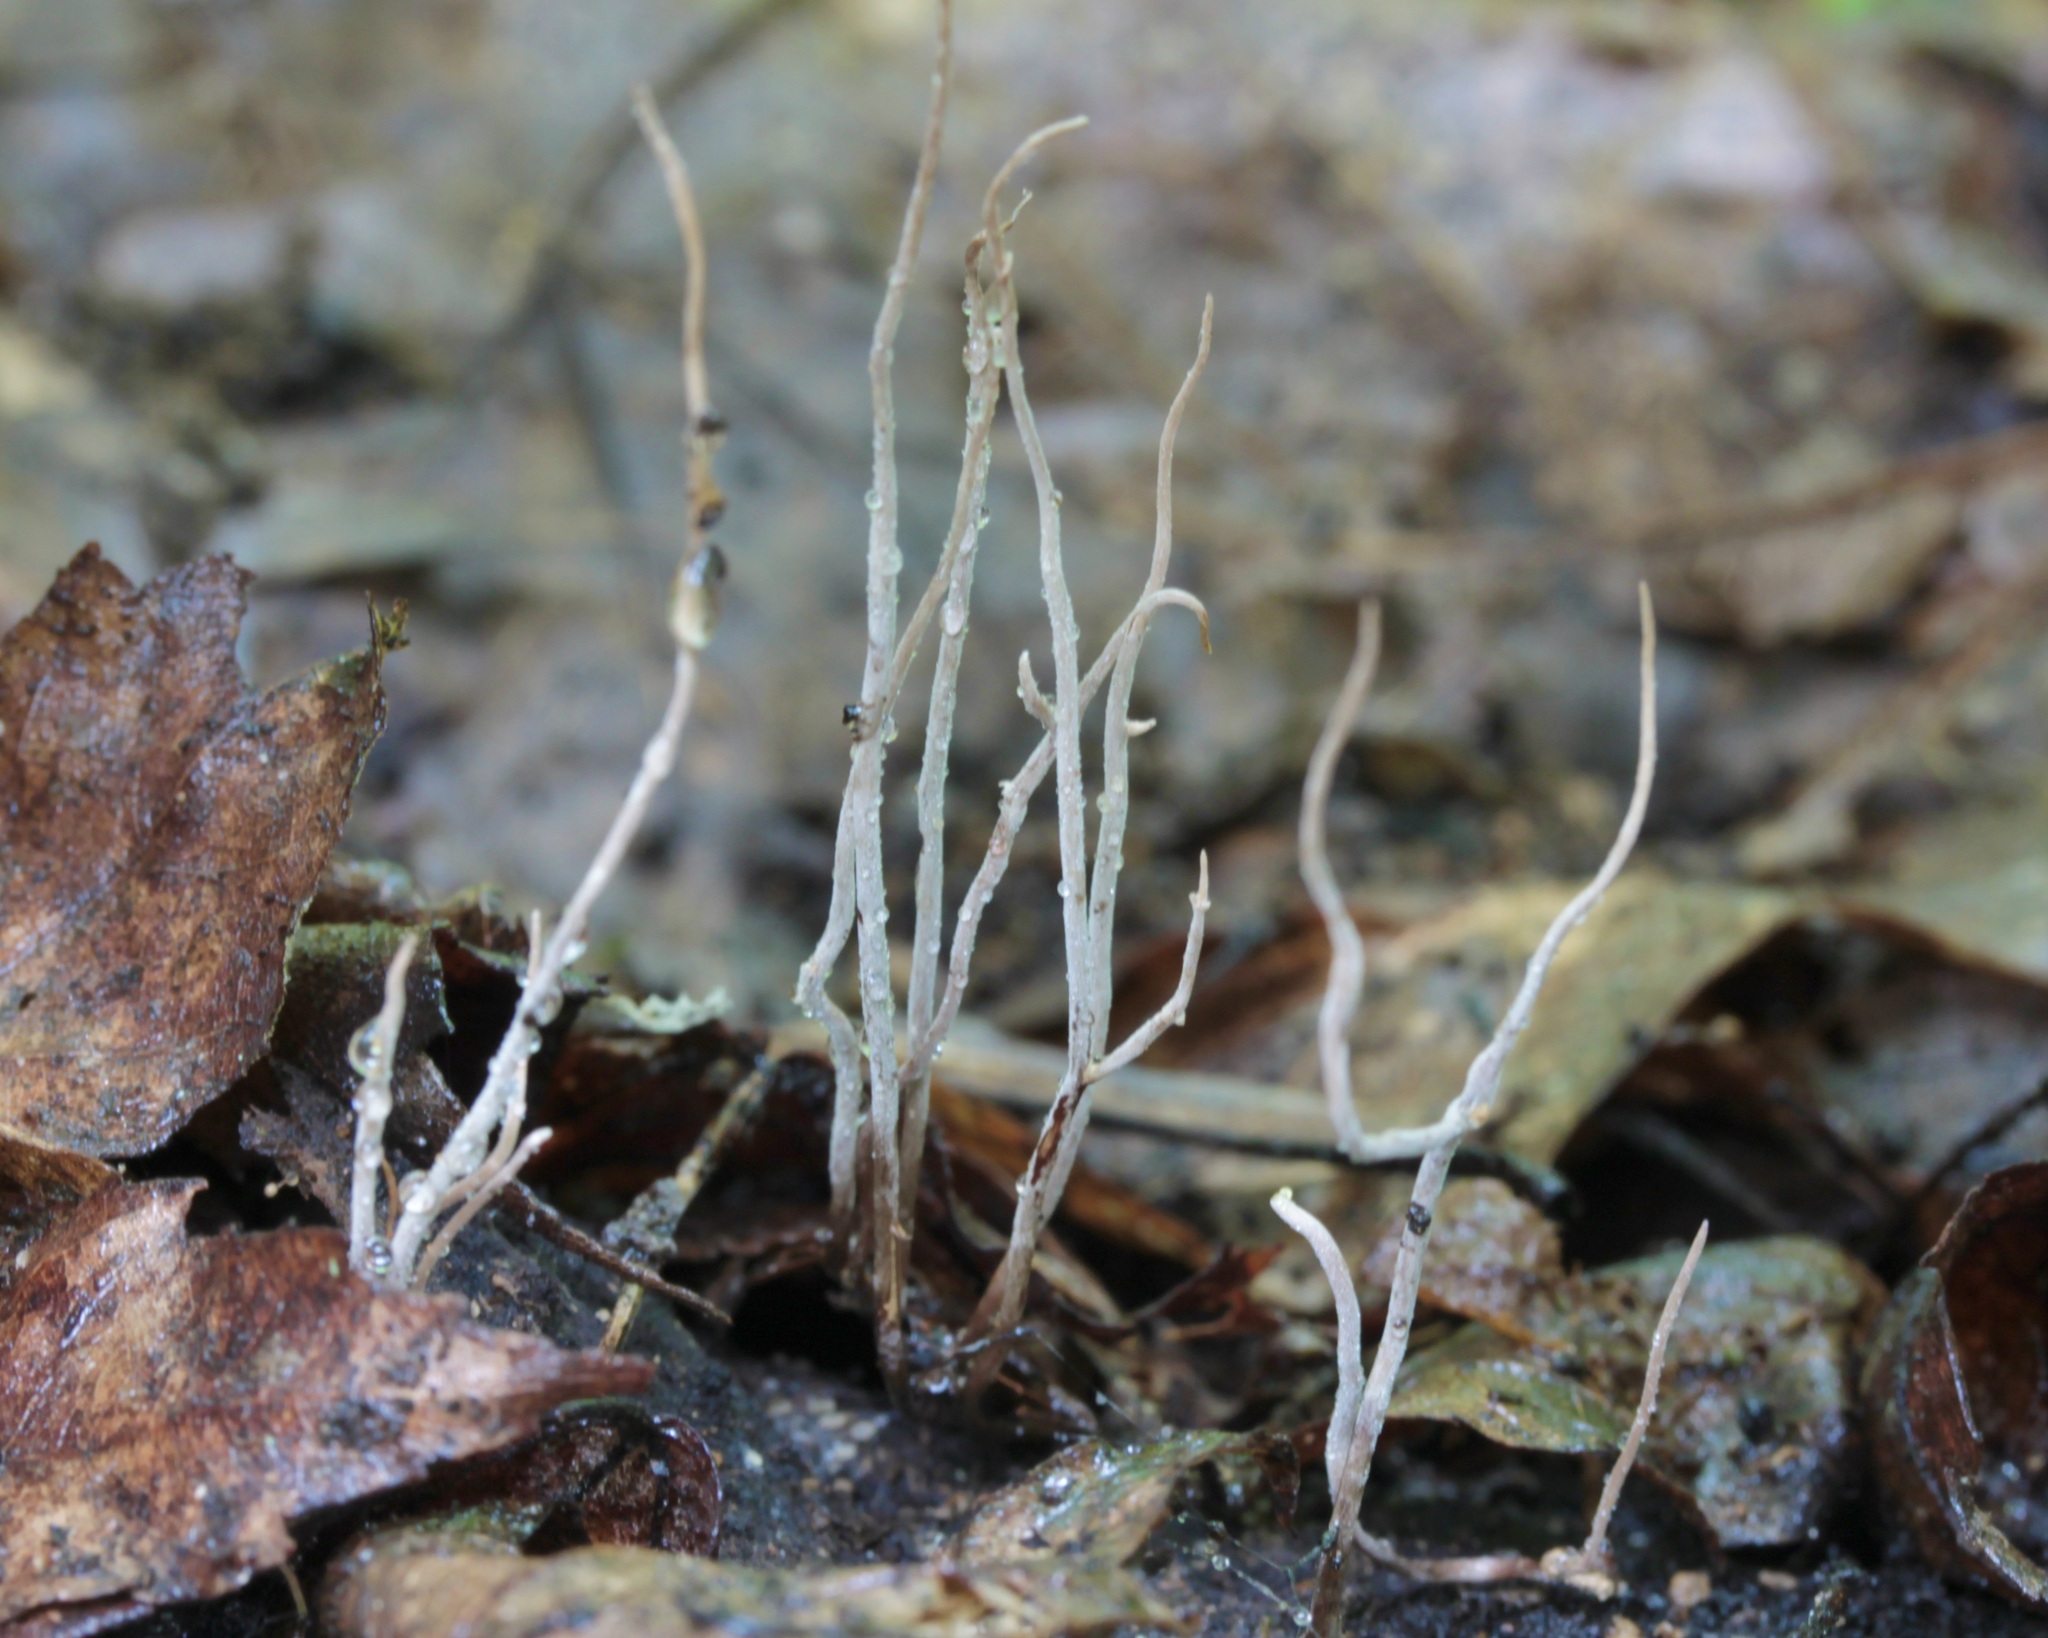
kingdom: Fungi
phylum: Ascomycota
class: Sordariomycetes
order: Xylariales
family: Xylariaceae
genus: Xylaria
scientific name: Xylaria filiformis
